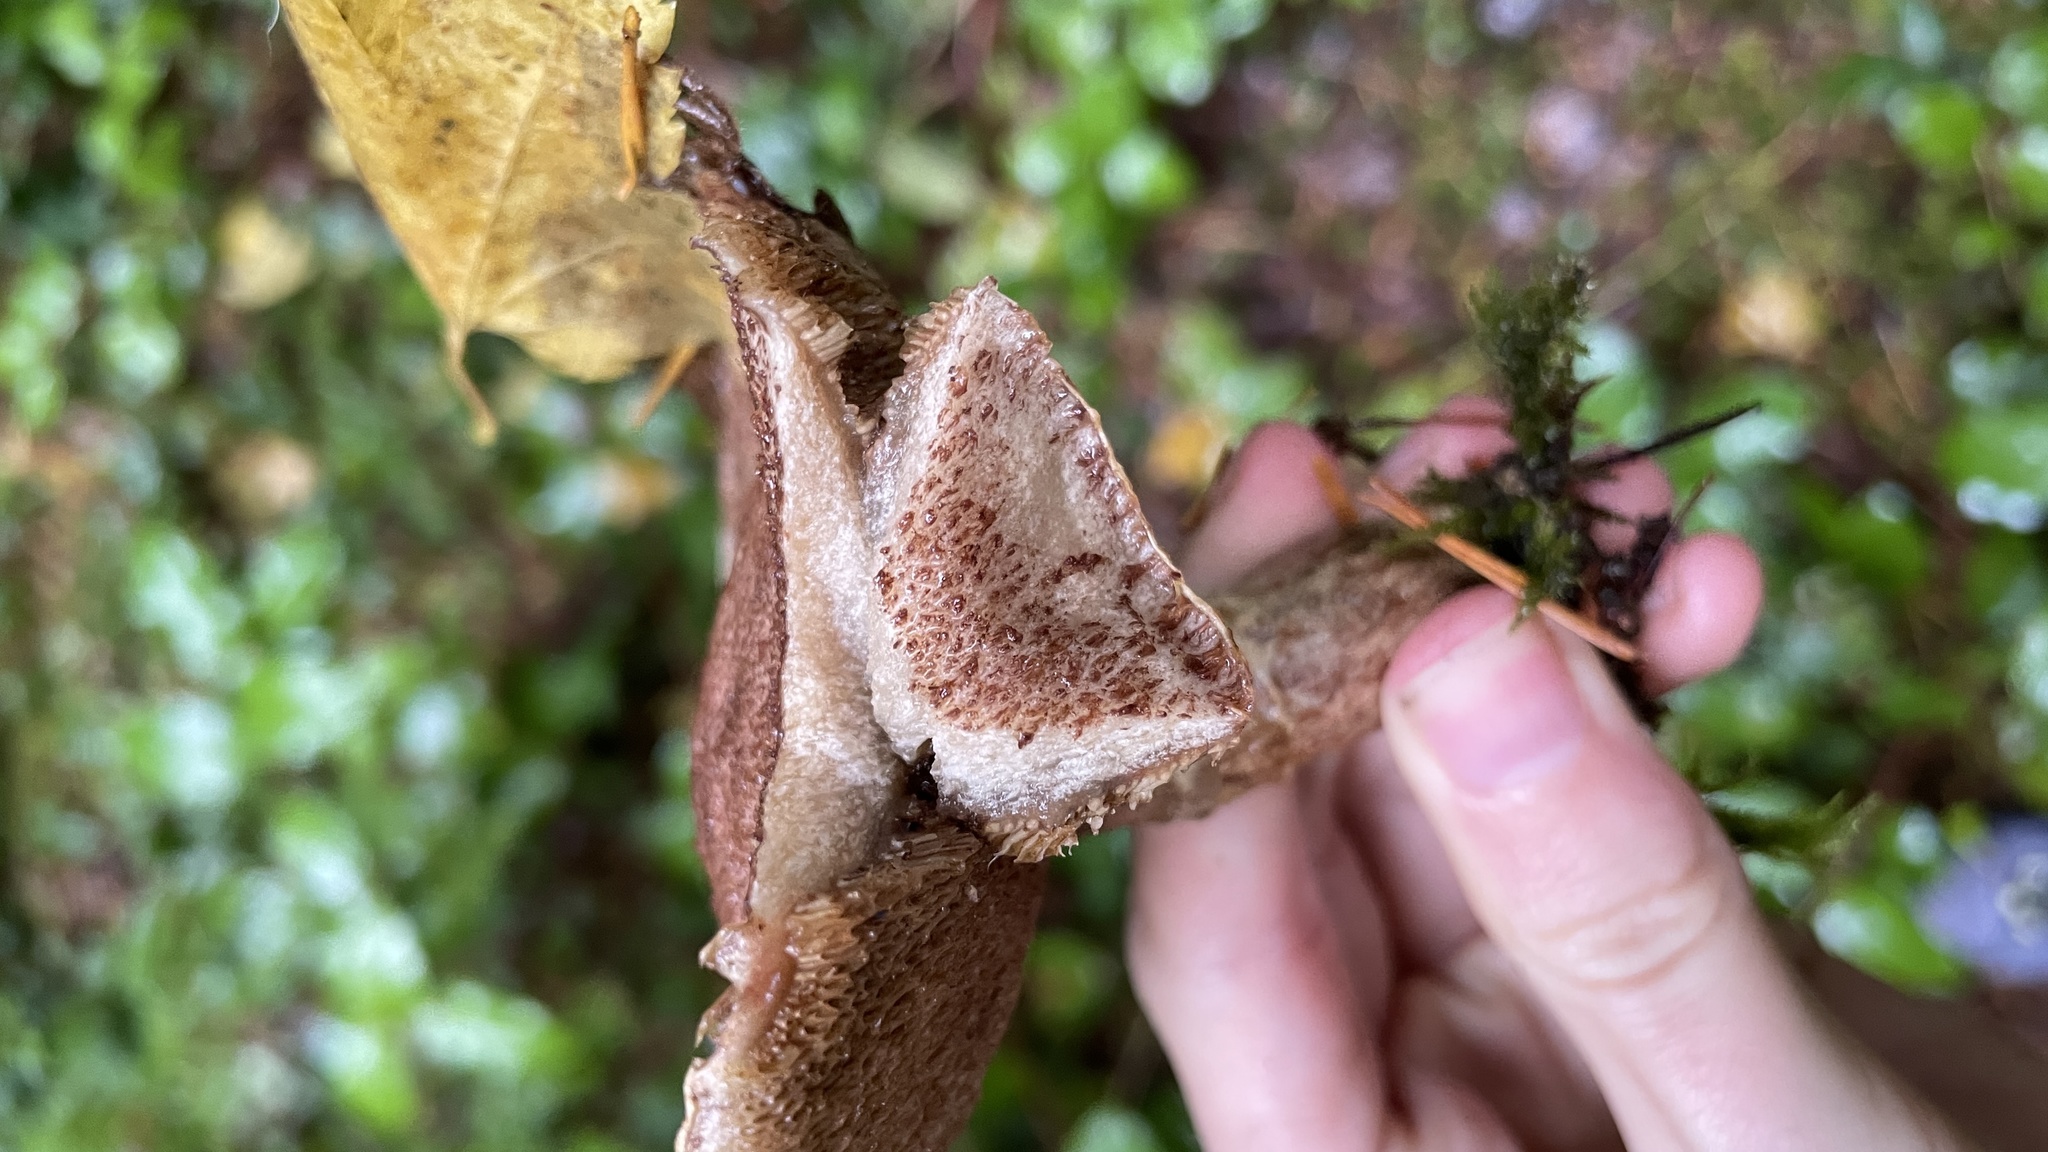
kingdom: Fungi
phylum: Basidiomycota
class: Agaricomycetes
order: Boletales
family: Suillaceae
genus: Suillus
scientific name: Suillus lakei
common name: Western painted suillus
